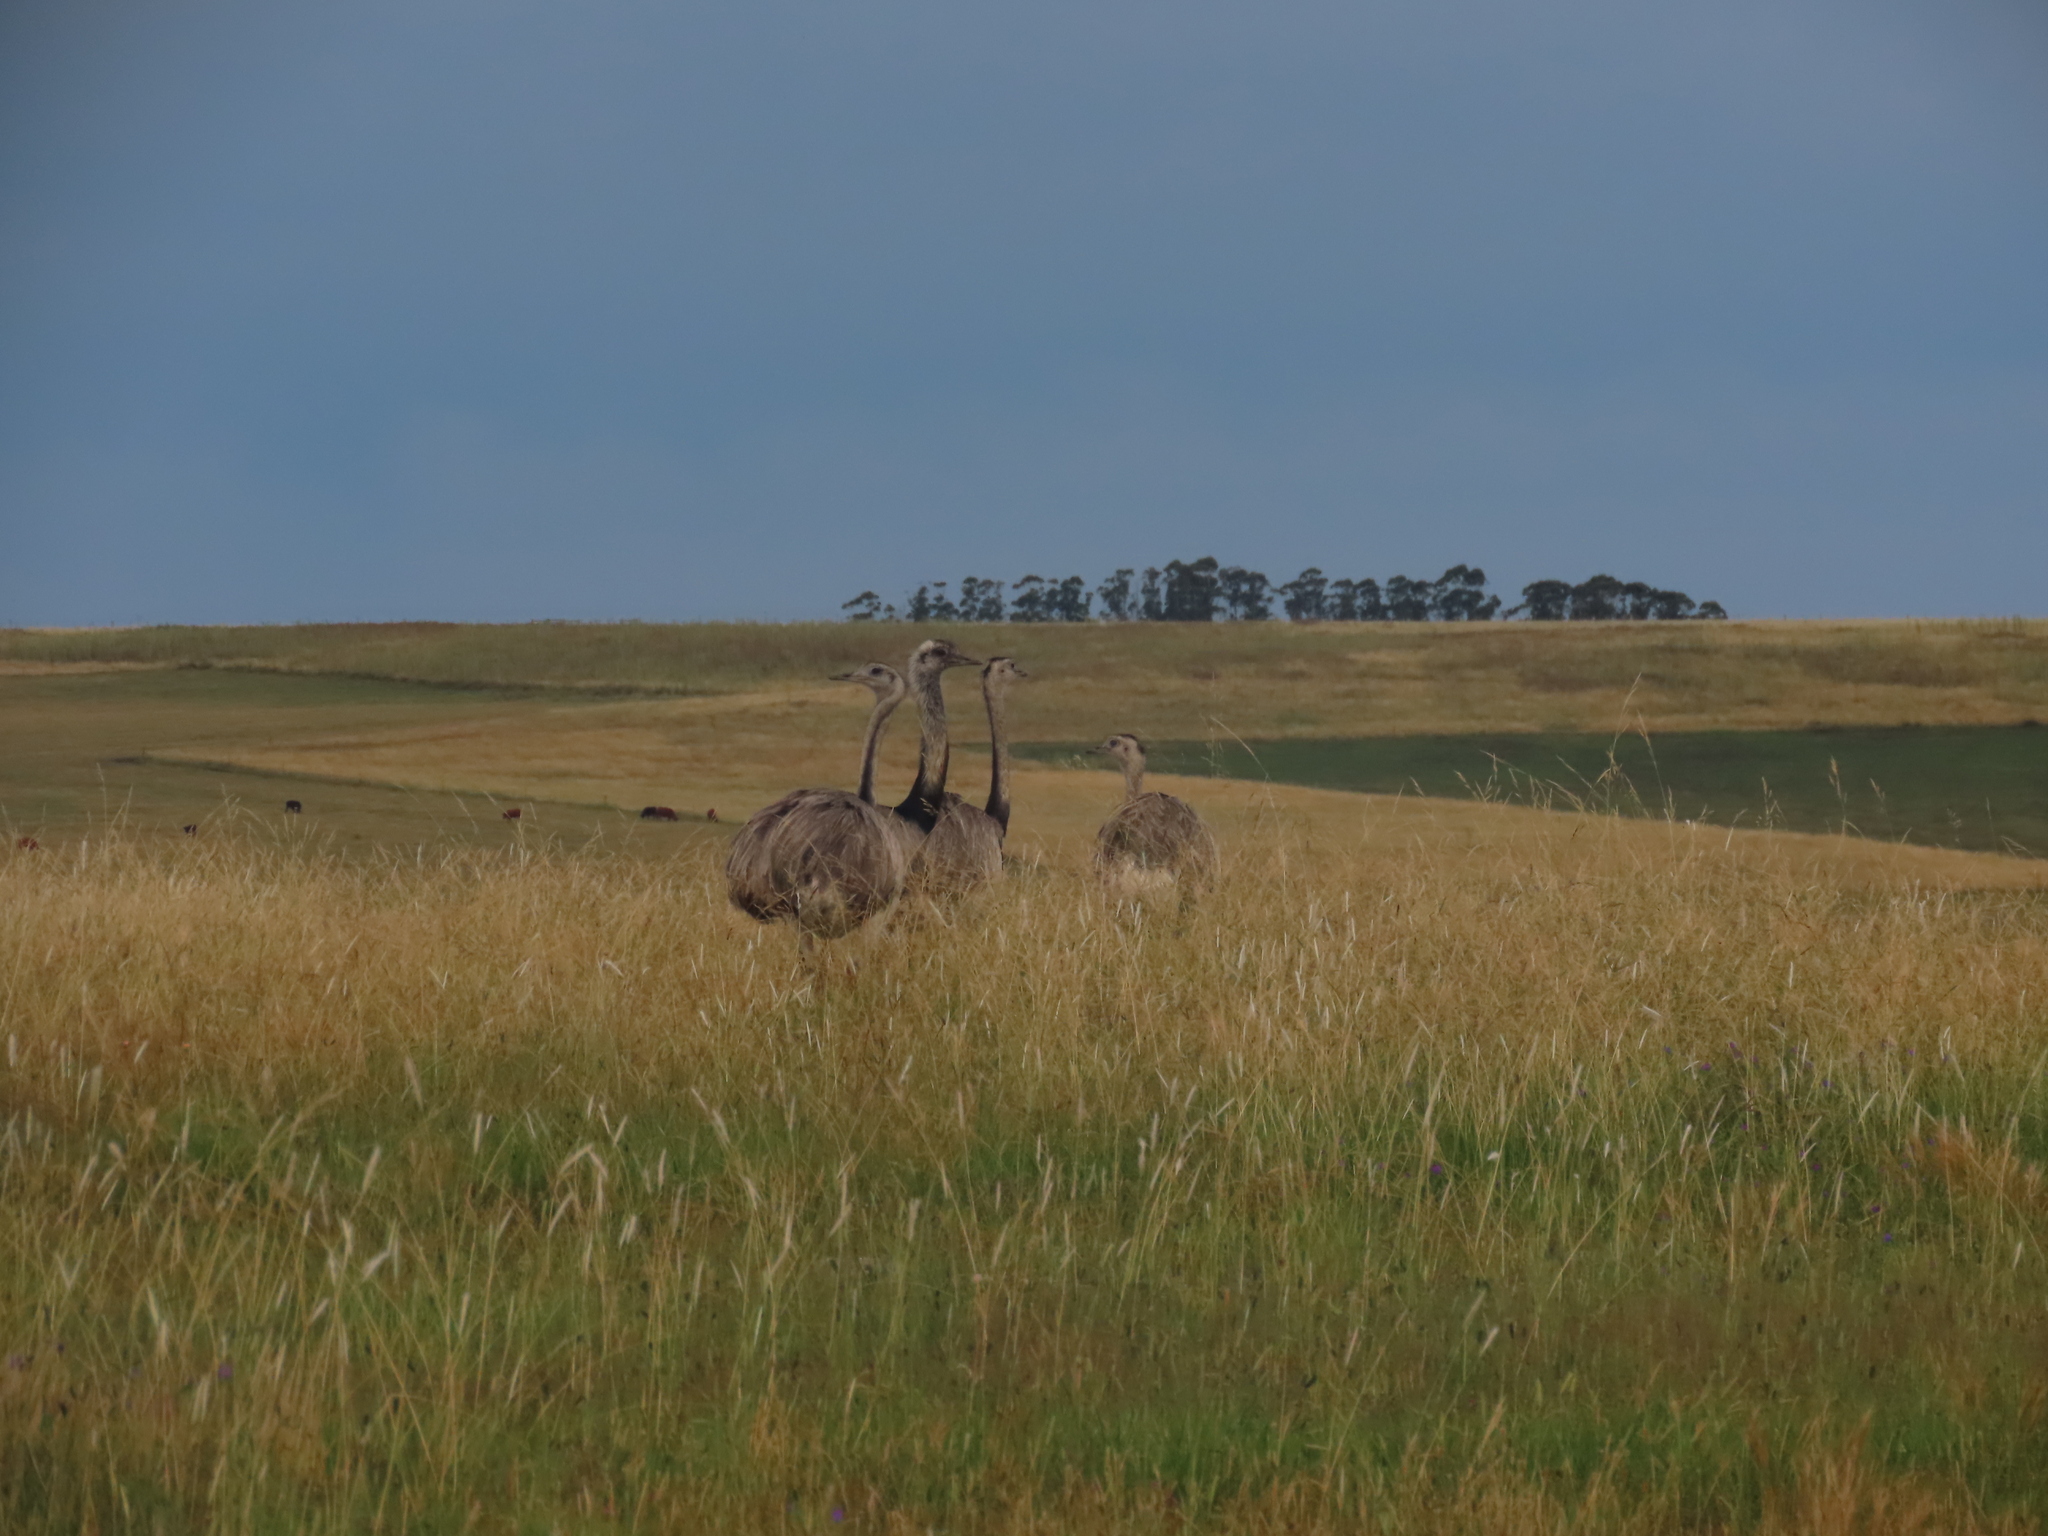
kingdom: Animalia
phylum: Chordata
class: Aves
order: Rheiformes
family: Rheidae
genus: Rhea
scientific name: Rhea americana
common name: Greater rhea
